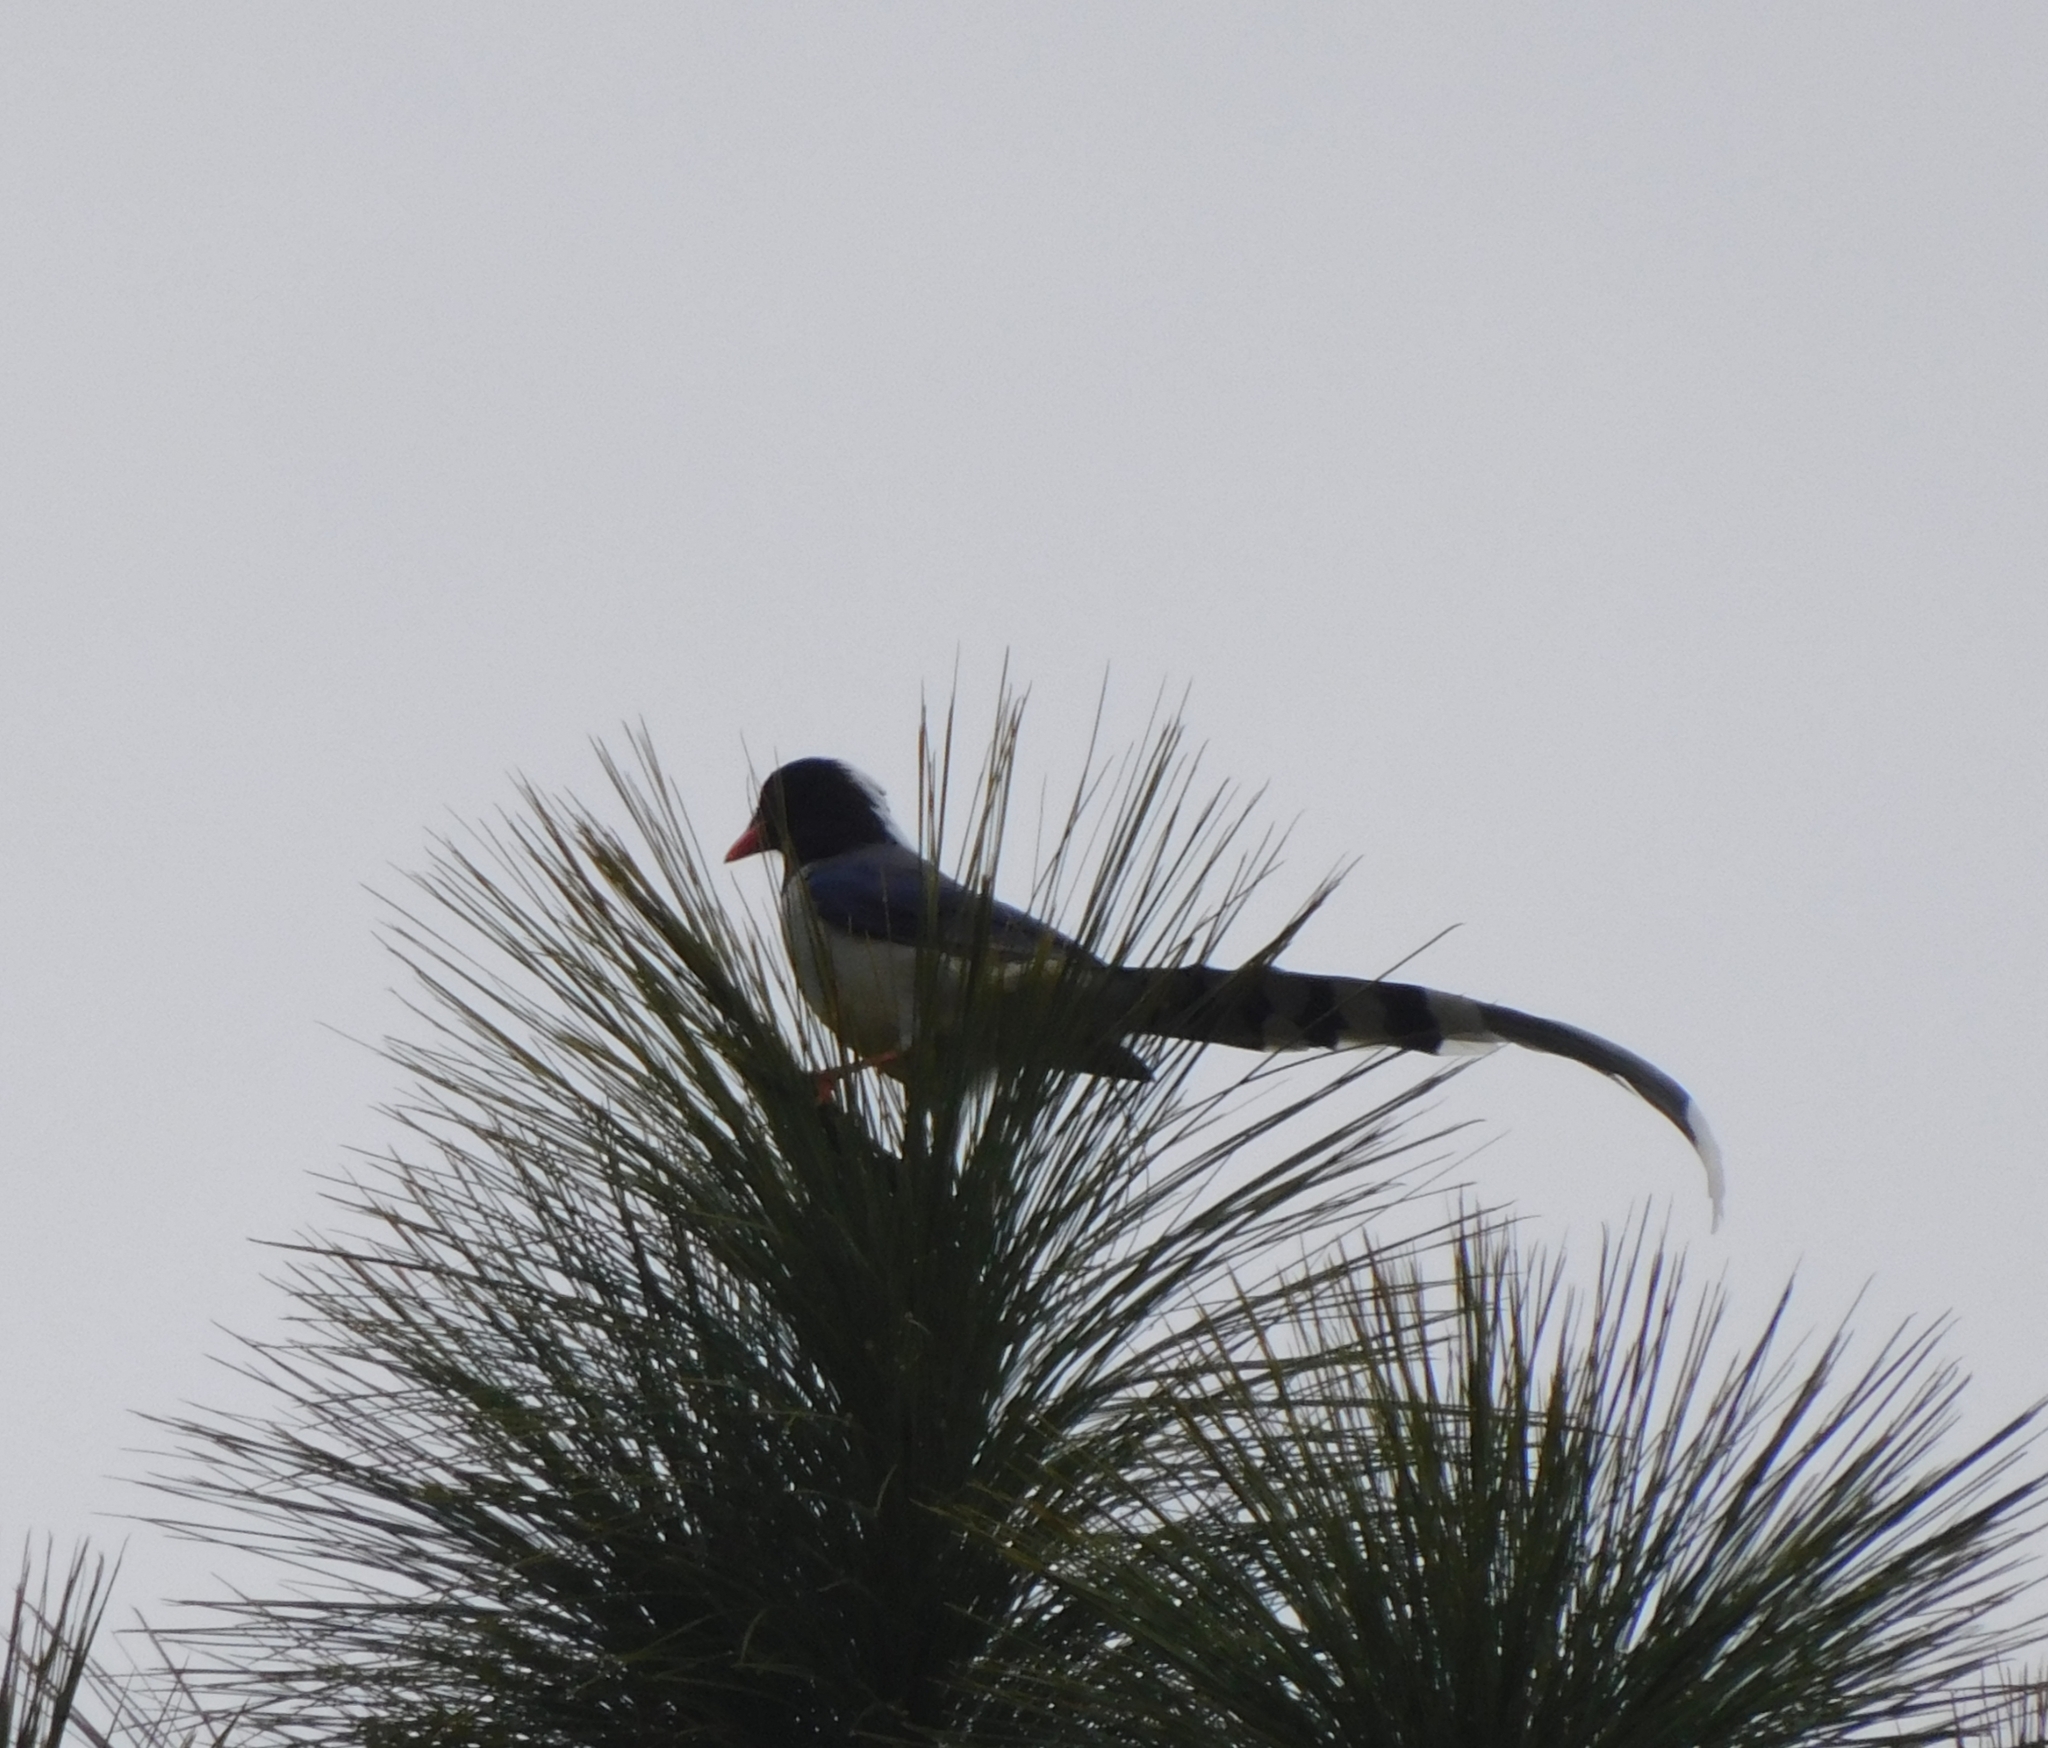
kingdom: Animalia
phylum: Chordata
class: Aves
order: Passeriformes
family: Corvidae
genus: Urocissa
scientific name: Urocissa erythroryncha
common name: Red-billed blue magpie
